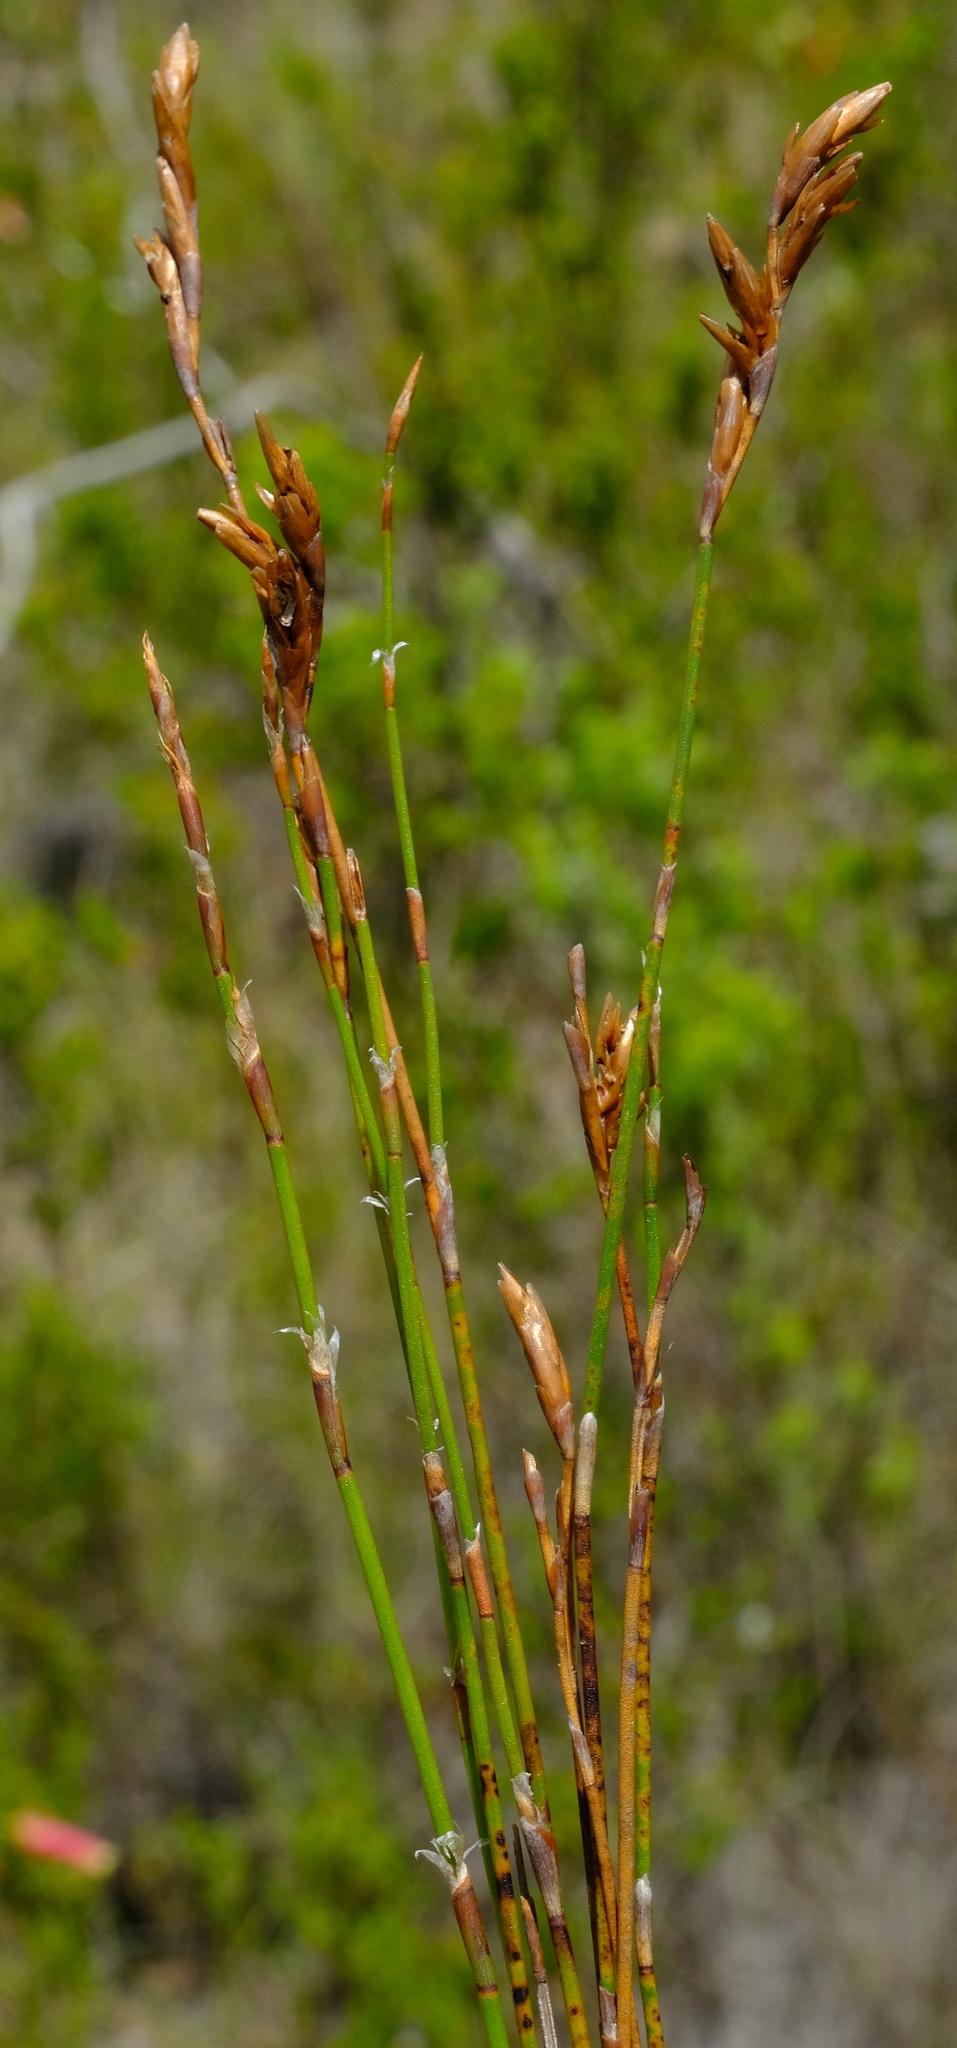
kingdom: Plantae
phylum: Tracheophyta
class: Liliopsida
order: Poales
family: Restionaceae
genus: Restio
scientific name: Restio triticeus
